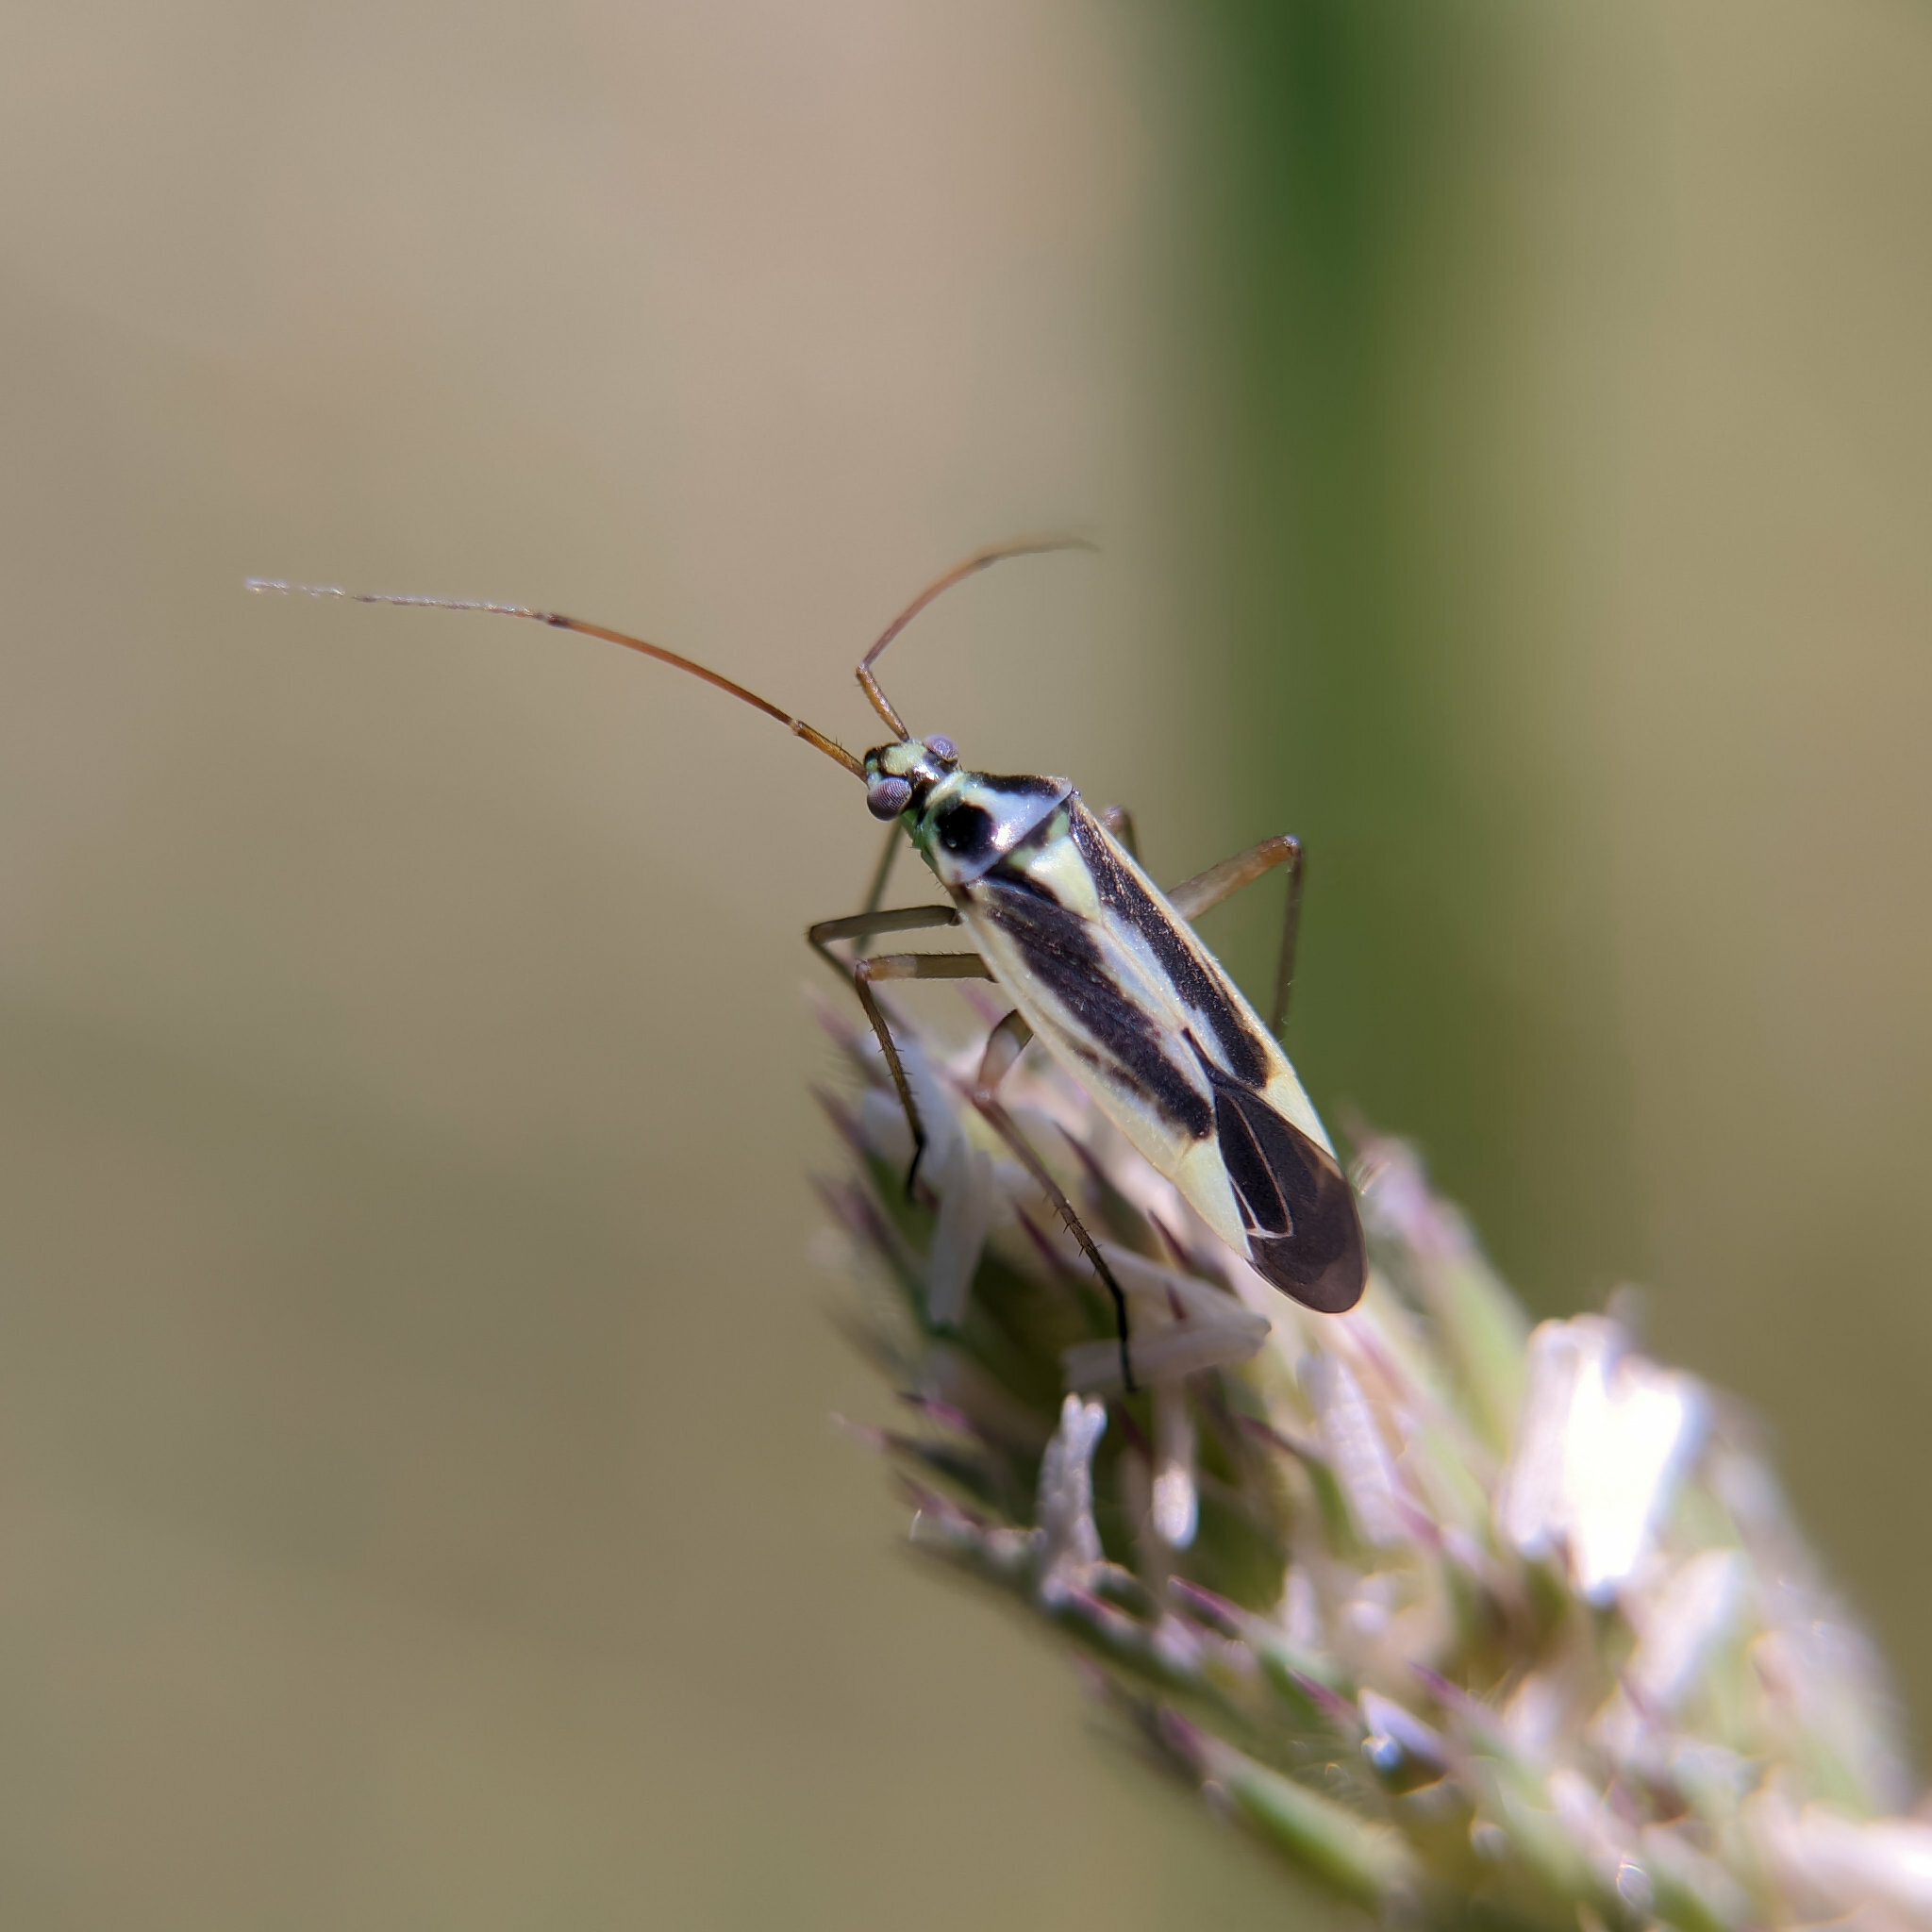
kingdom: Animalia
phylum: Arthropoda
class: Insecta
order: Hemiptera
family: Miridae
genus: Stenotus
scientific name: Stenotus binotatus
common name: Plant bug
